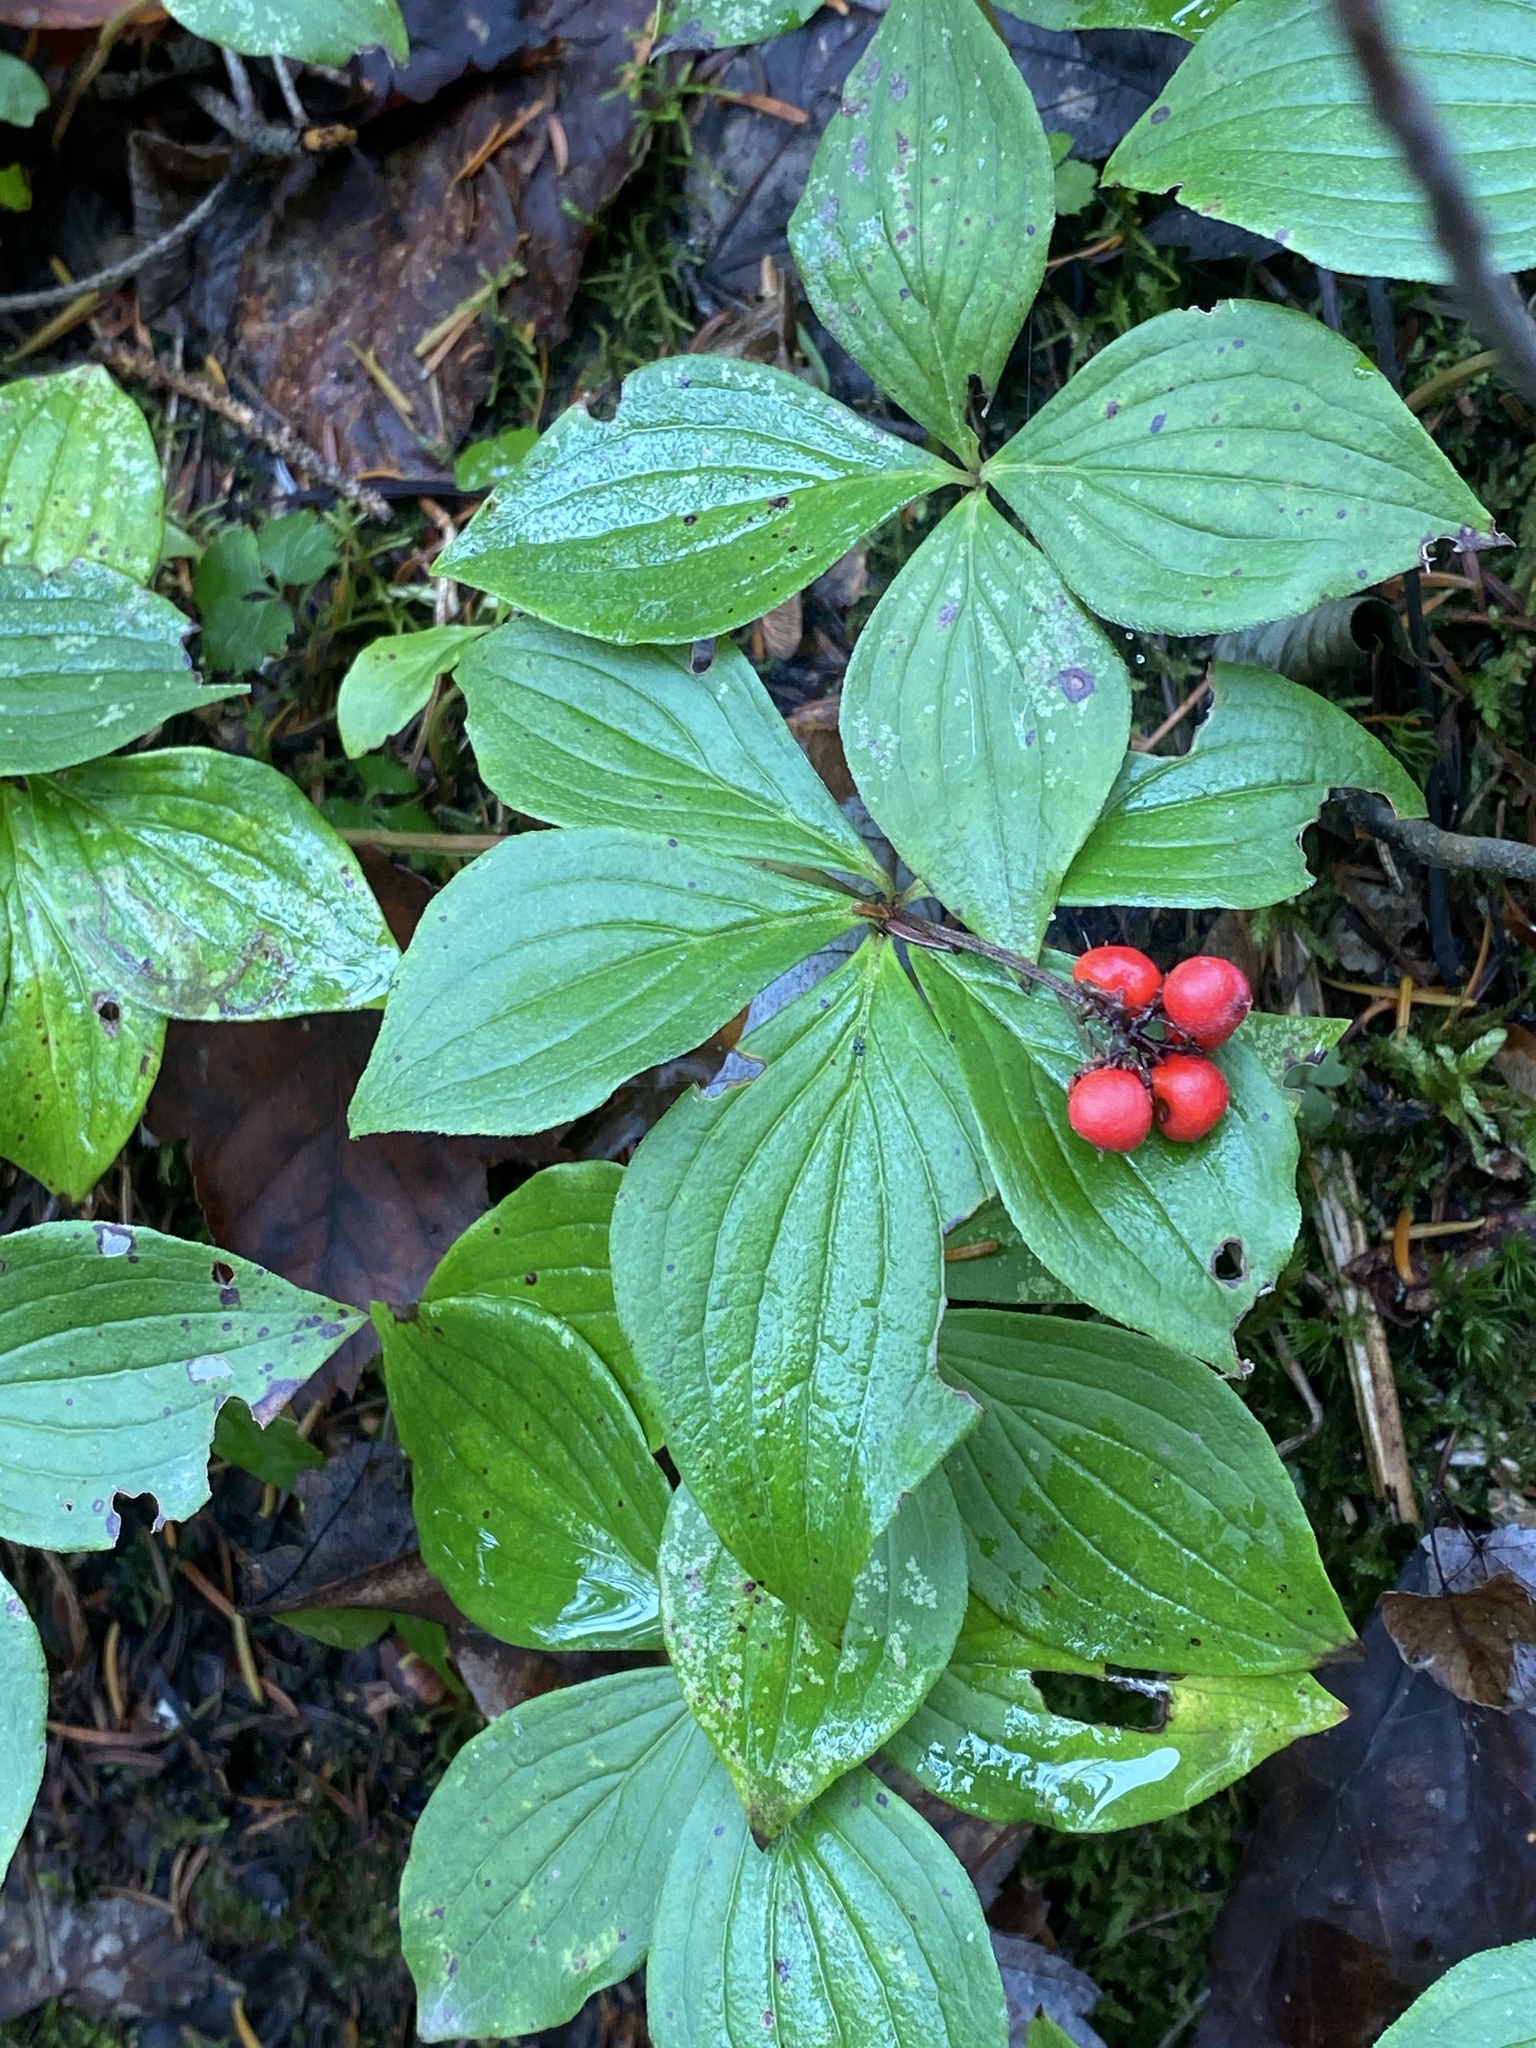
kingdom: Plantae
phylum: Tracheophyta
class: Magnoliopsida
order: Cornales
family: Cornaceae
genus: Cornus
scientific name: Cornus canadensis
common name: Creeping dogwood
